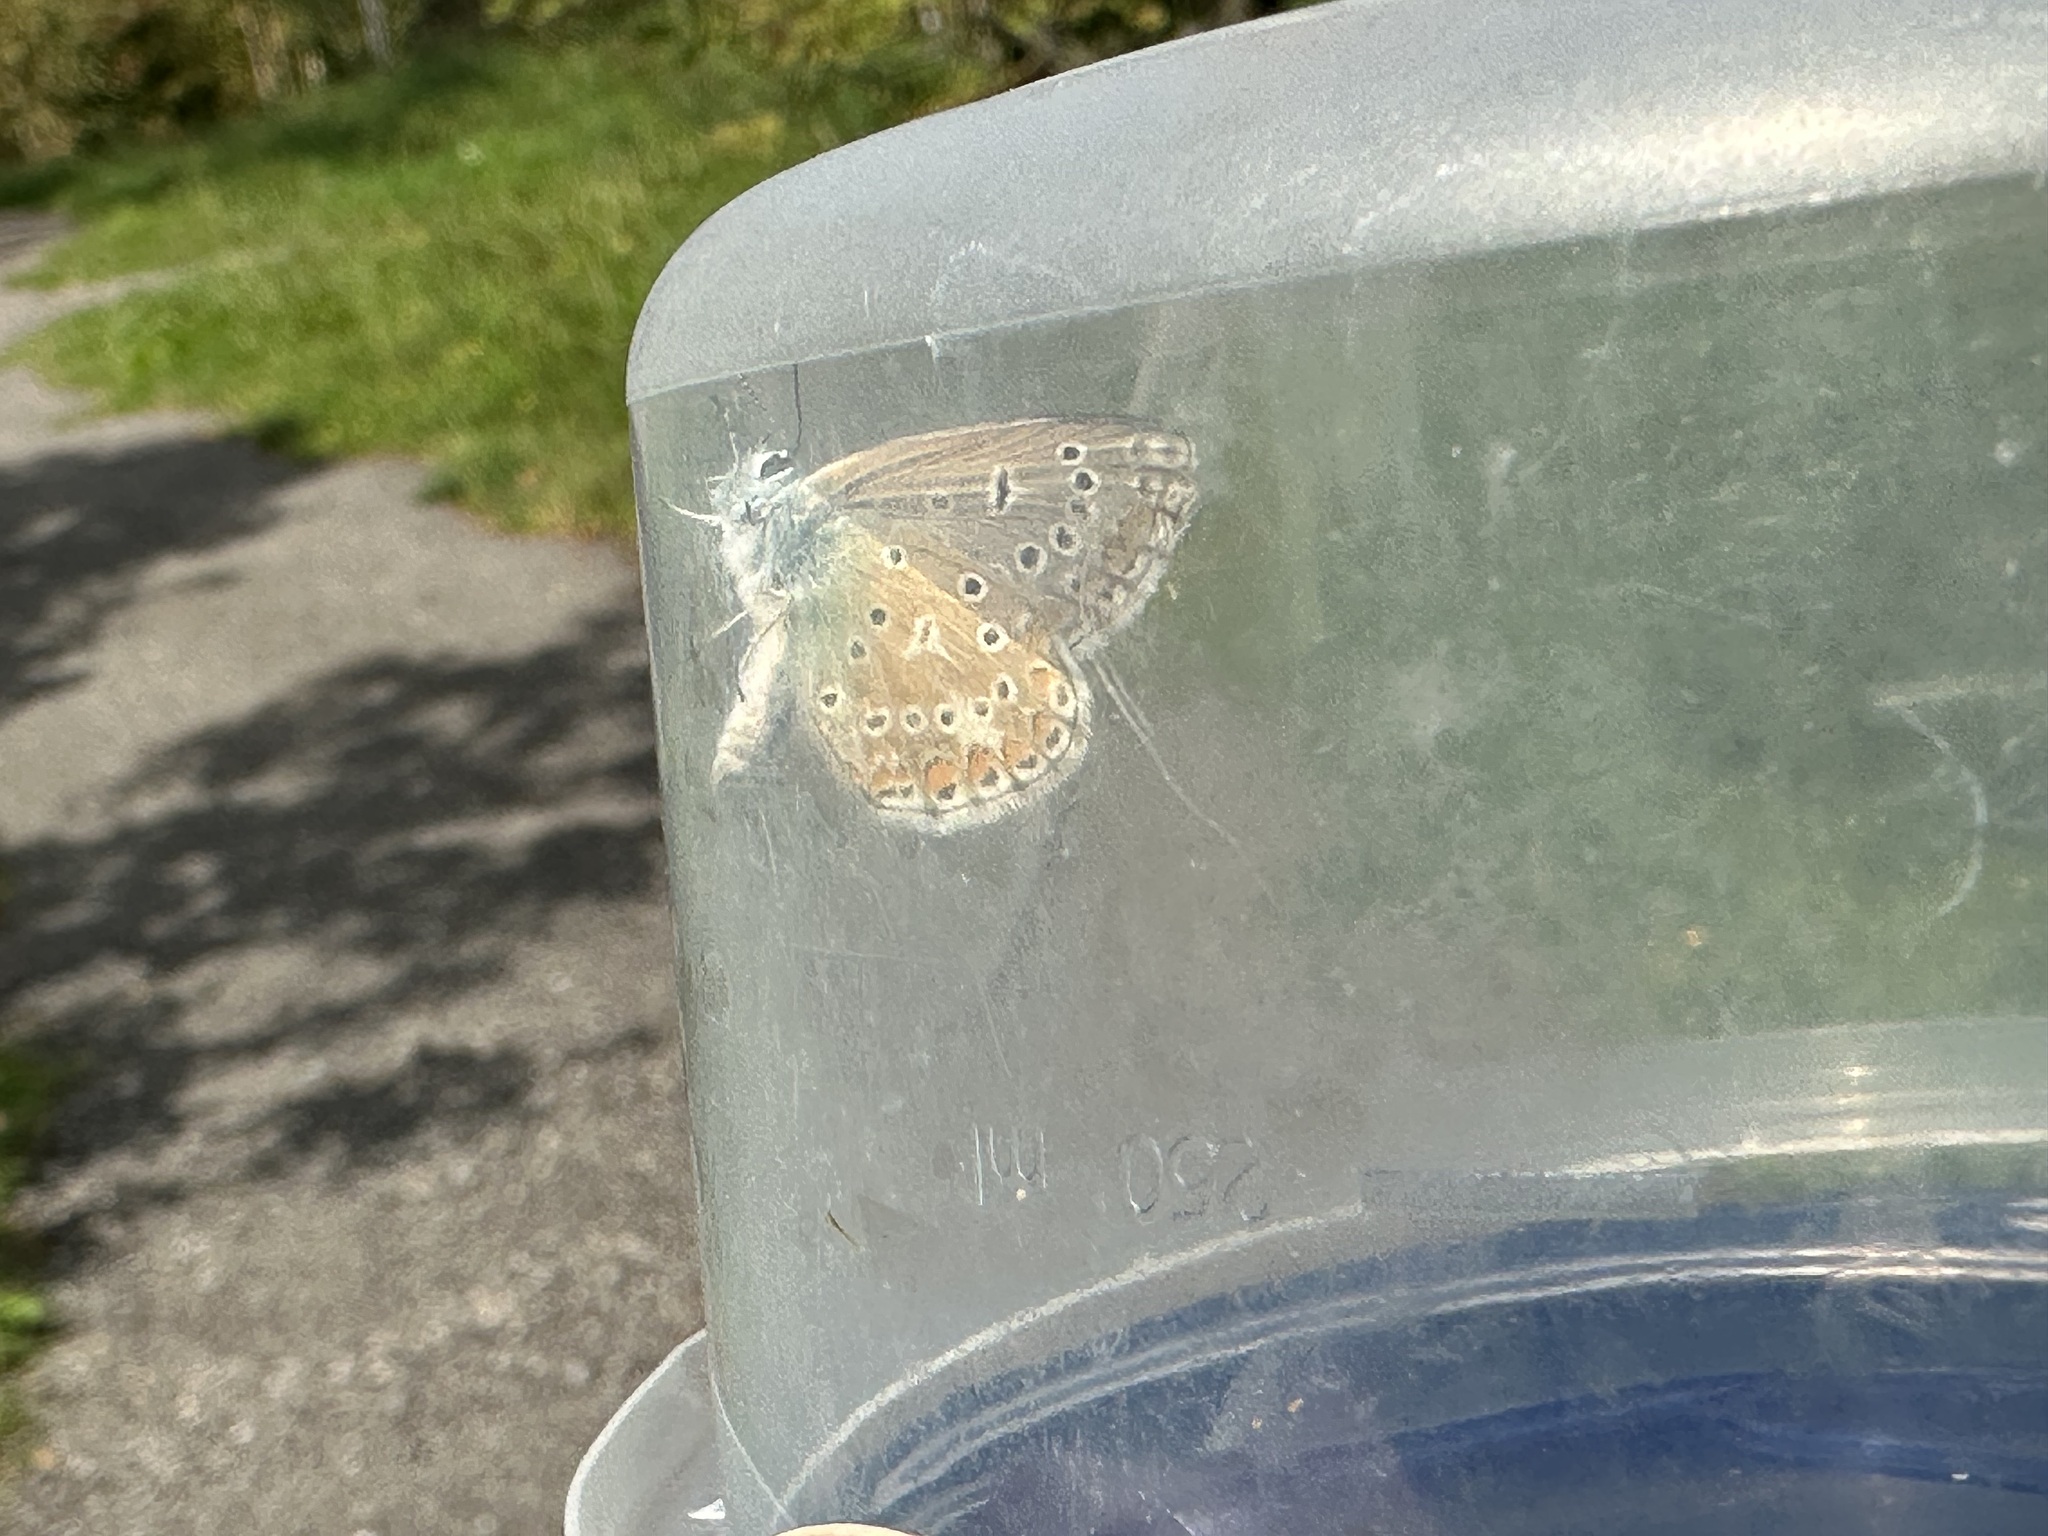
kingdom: Animalia
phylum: Arthropoda
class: Insecta
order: Lepidoptera
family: Lycaenidae
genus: Polyommatus
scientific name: Polyommatus icarus
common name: Common blue
